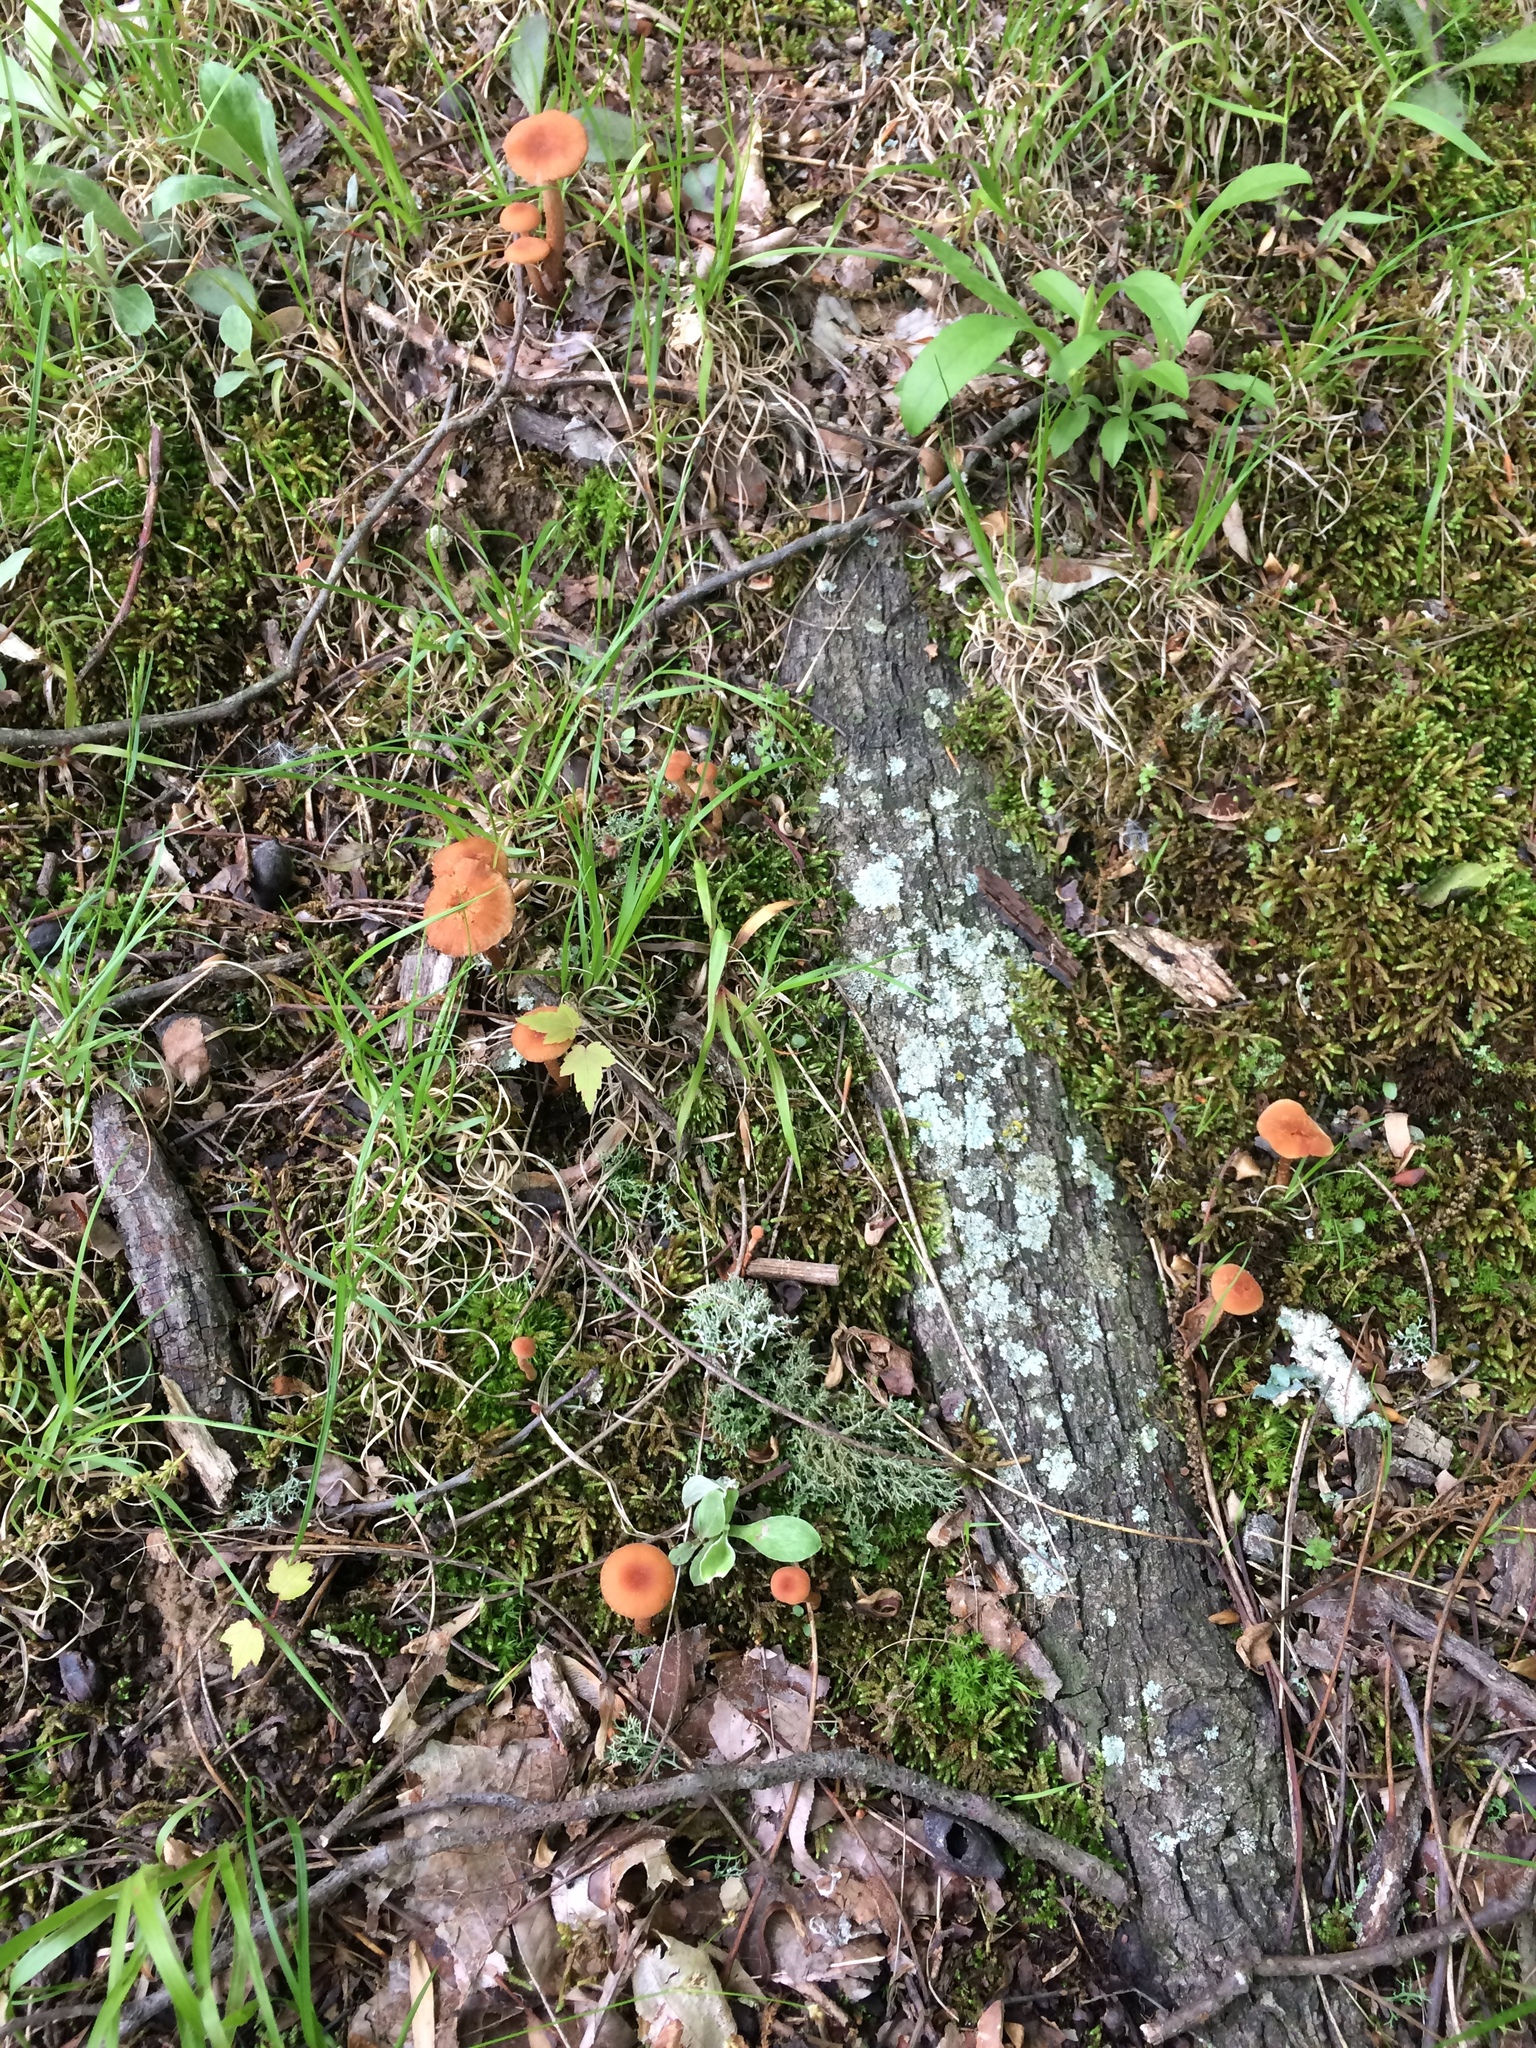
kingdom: Fungi
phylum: Basidiomycota
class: Agaricomycetes
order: Agaricales
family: Hydnangiaceae
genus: Laccaria
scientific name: Laccaria laccata
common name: Deceiver
